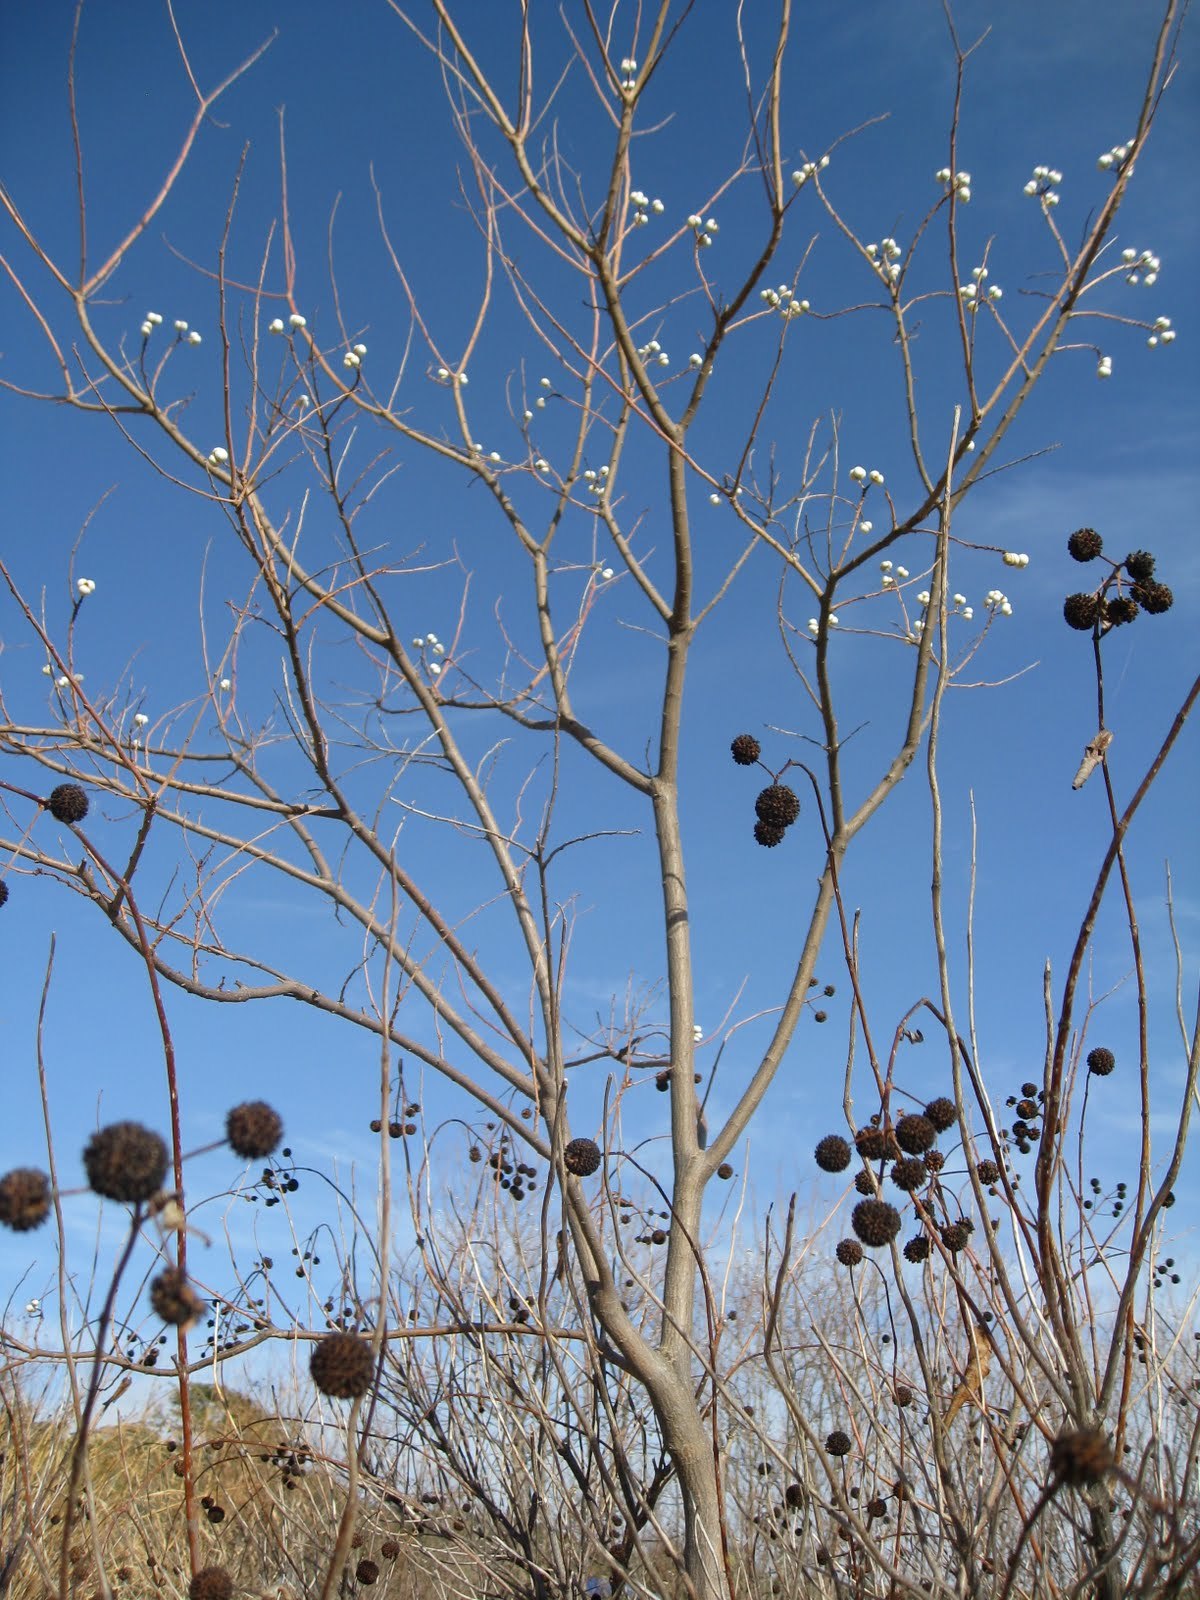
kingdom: Plantae
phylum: Tracheophyta
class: Magnoliopsida
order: Malpighiales
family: Euphorbiaceae
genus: Triadica
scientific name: Triadica sebifera
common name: Chinese tallow
